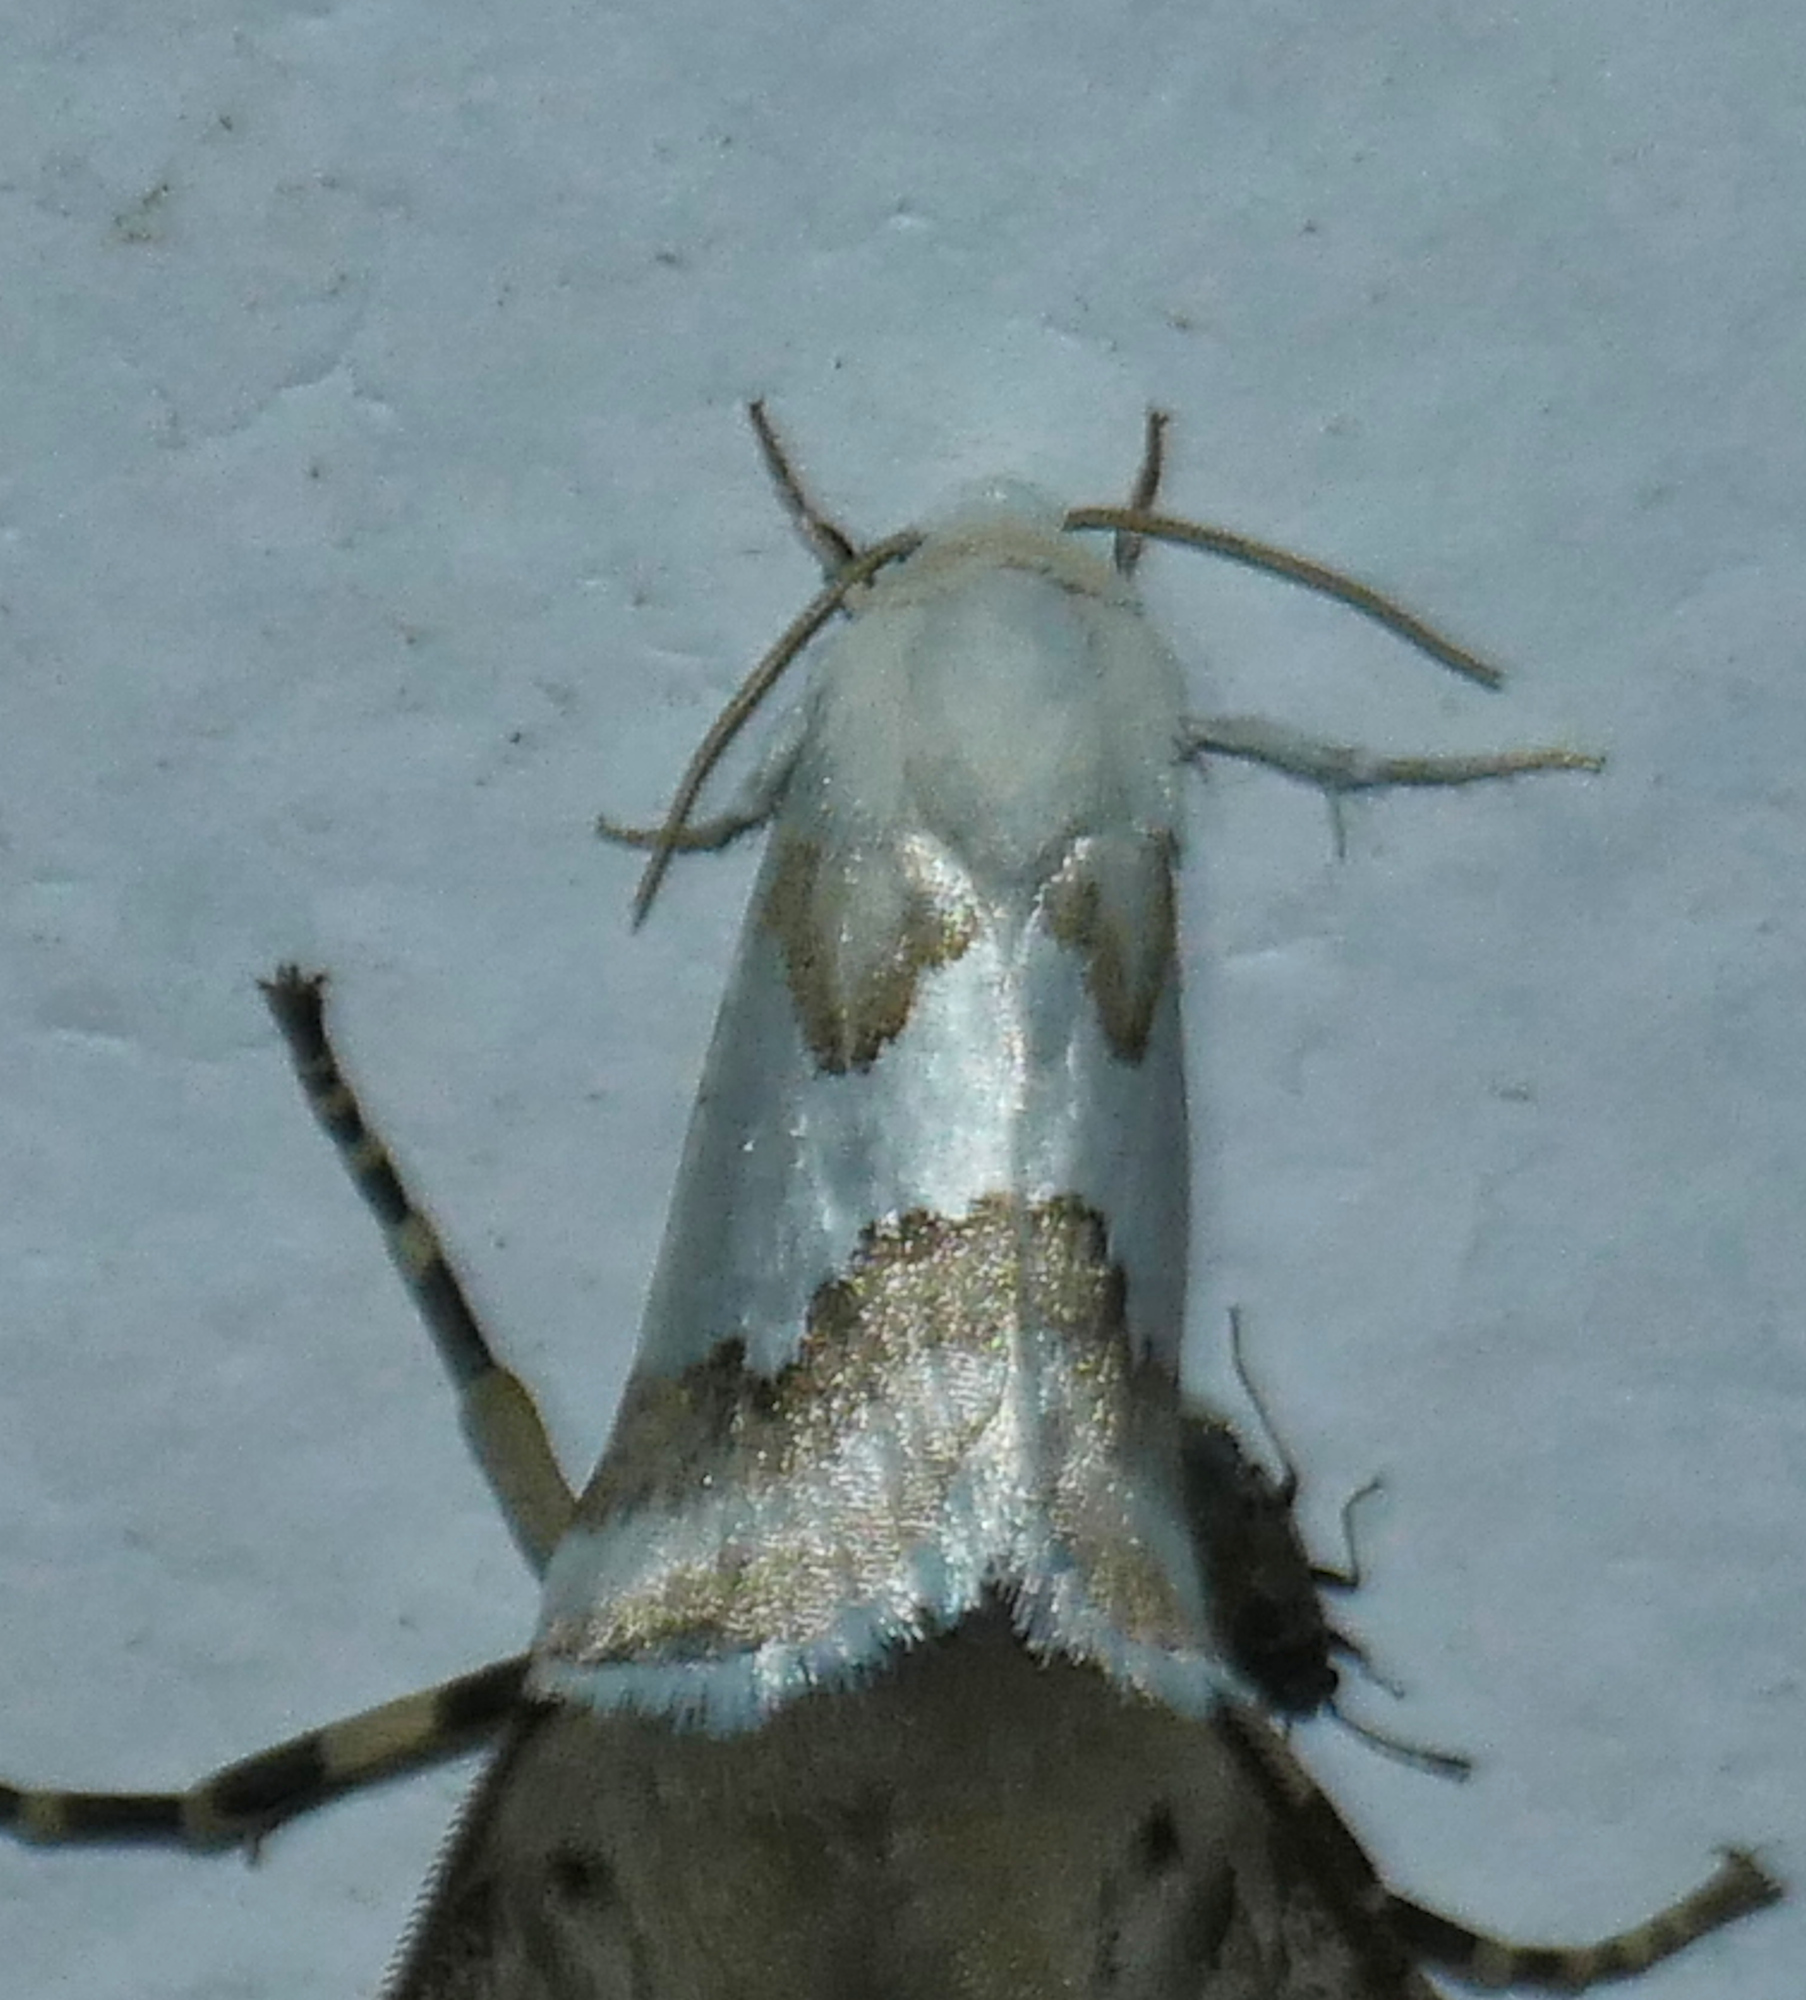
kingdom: Animalia
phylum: Arthropoda
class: Insecta
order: Lepidoptera
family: Noctuidae
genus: Schinia
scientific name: Schinia hulstia
